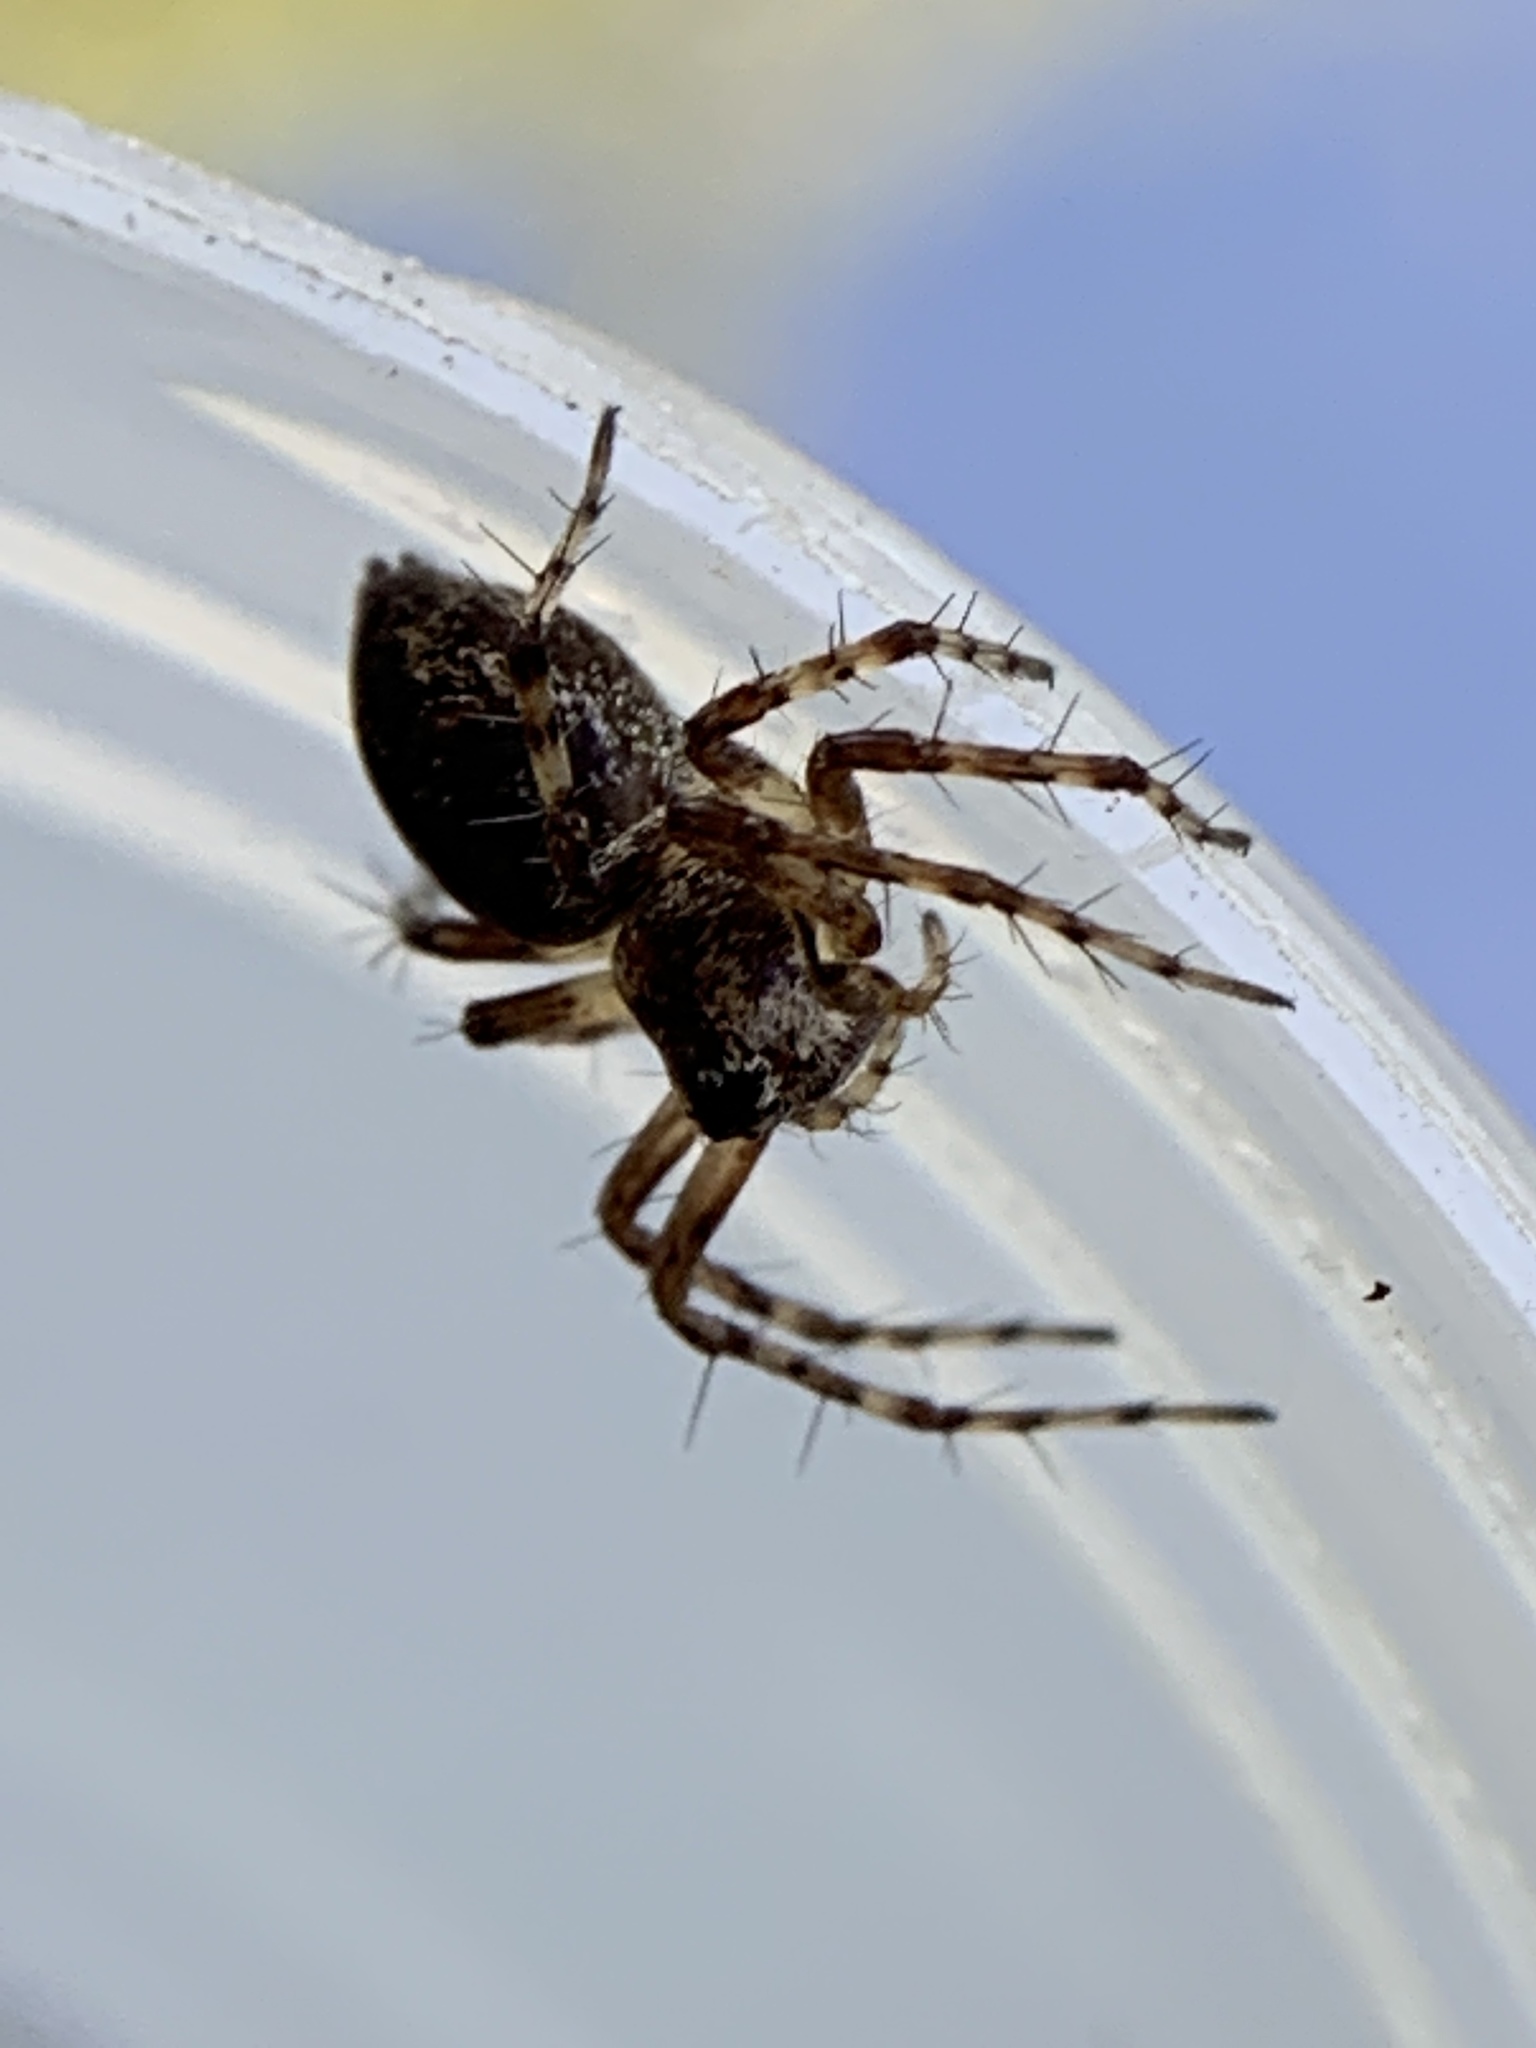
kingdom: Animalia
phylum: Arthropoda
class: Arachnida
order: Araneae
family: Oxyopidae
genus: Oxyopes
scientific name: Oxyopes scalaris
